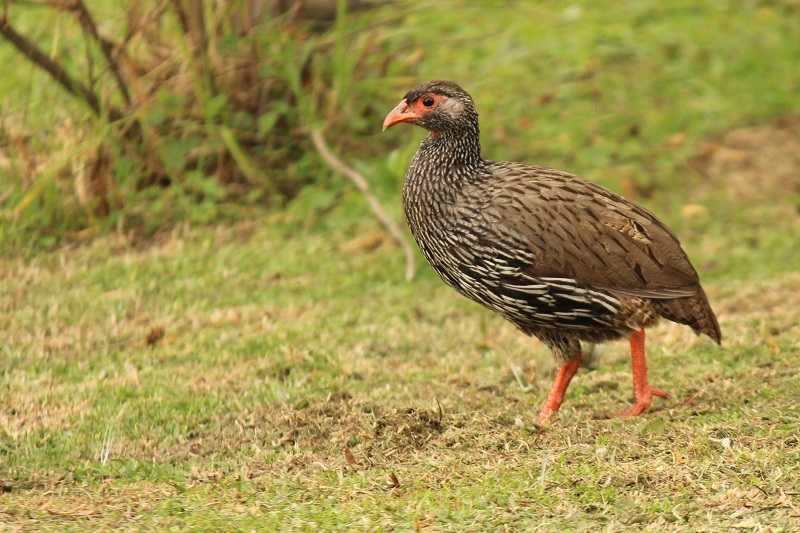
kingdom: Animalia
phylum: Chordata
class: Aves
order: Galliformes
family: Phasianidae
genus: Pternistis
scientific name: Pternistis afer
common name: Red-necked spurfowl
